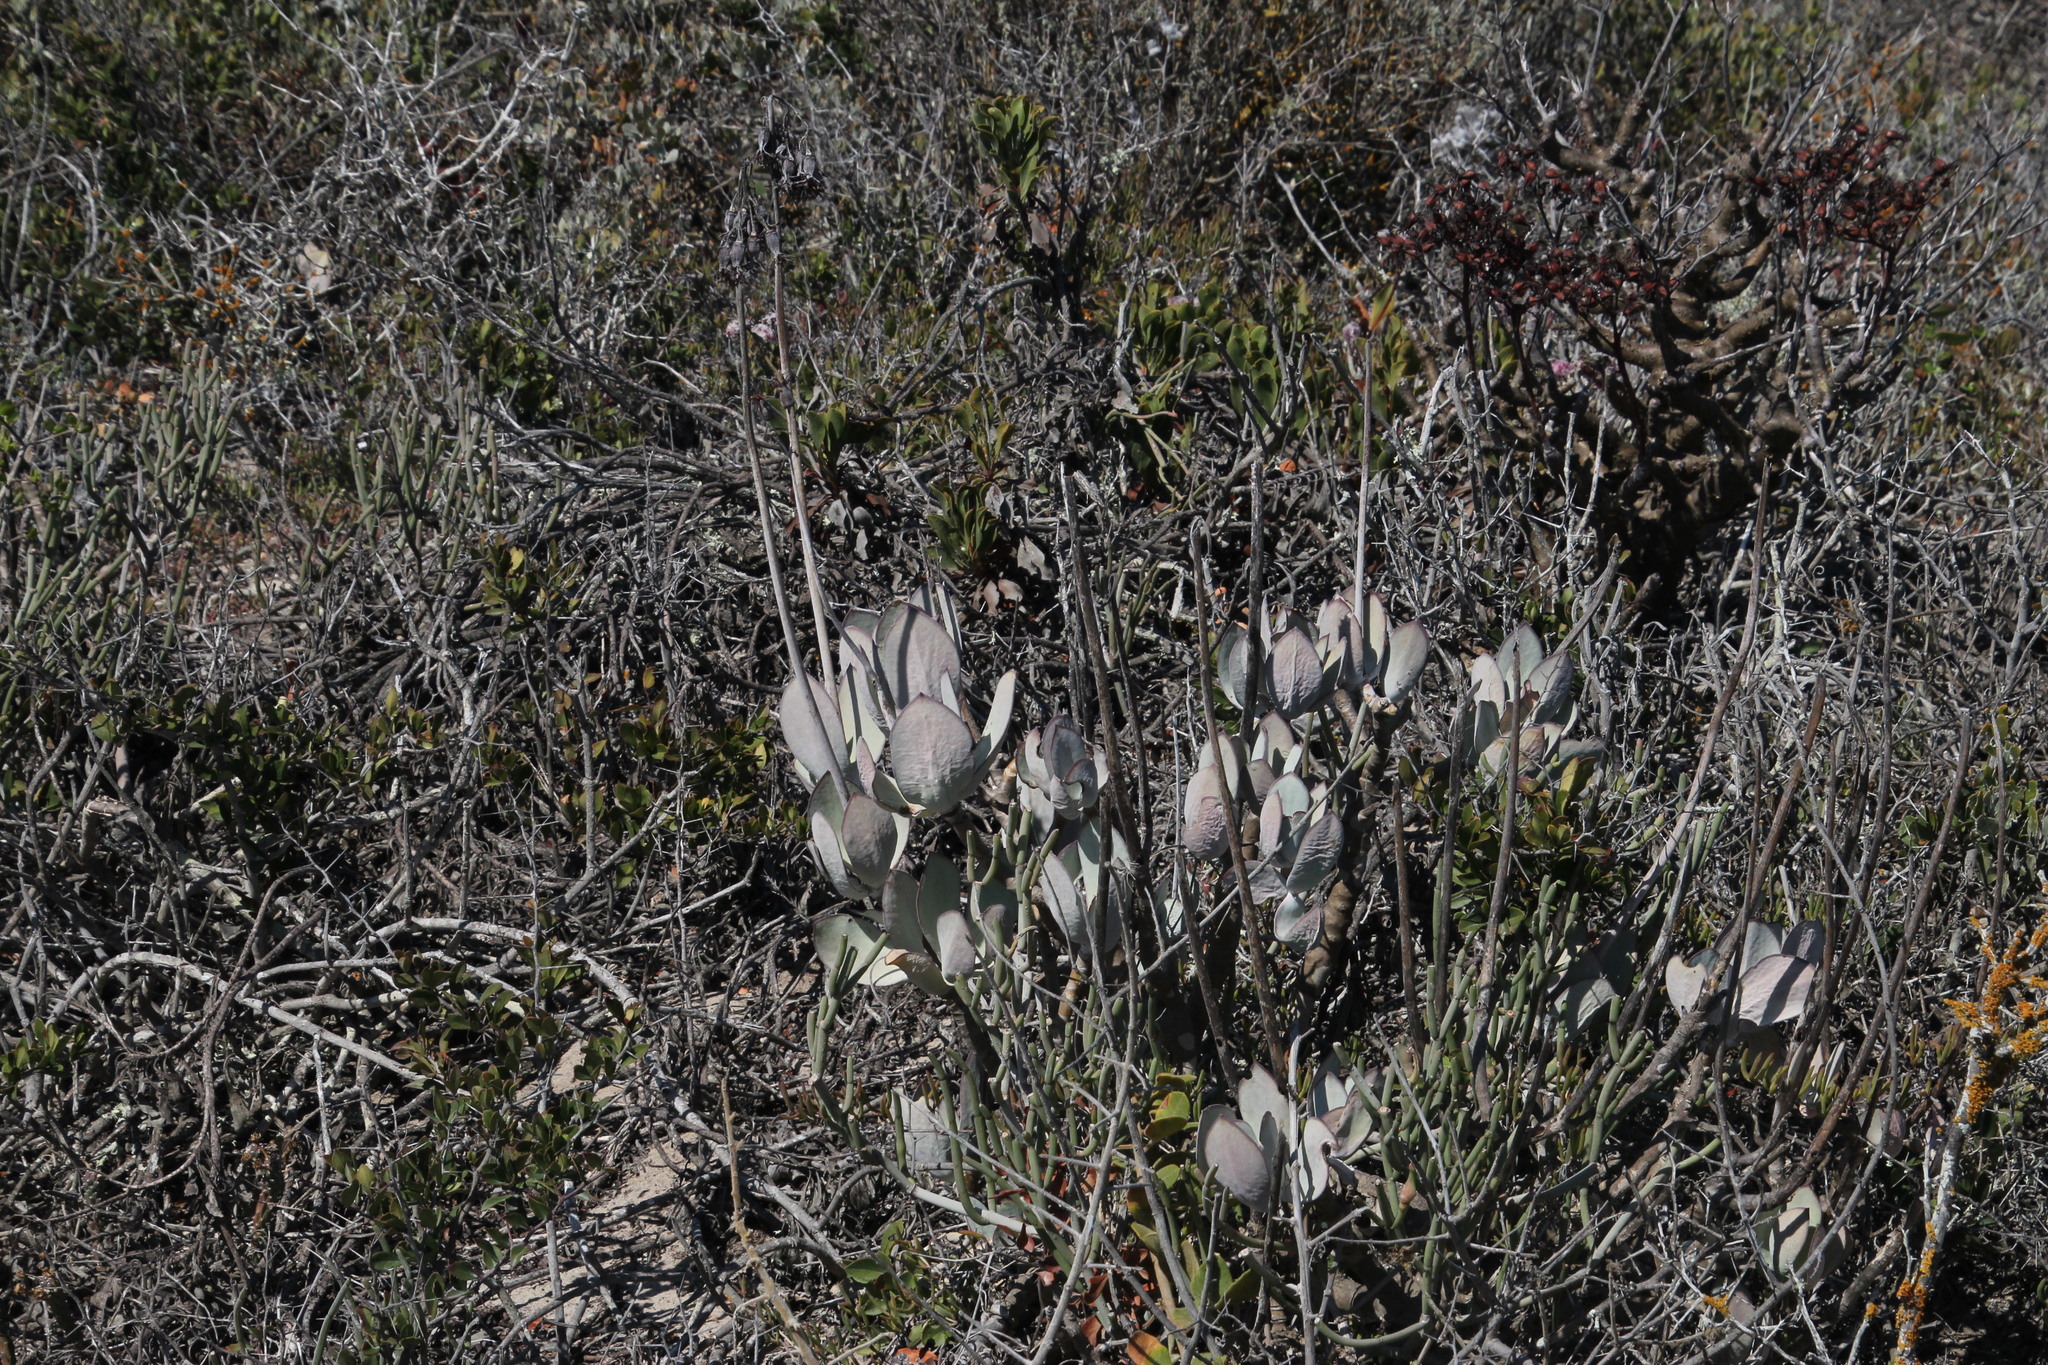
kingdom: Plantae
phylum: Tracheophyta
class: Magnoliopsida
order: Saxifragales
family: Crassulaceae
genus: Cotyledon
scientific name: Cotyledon orbiculata
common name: Pig's ear
